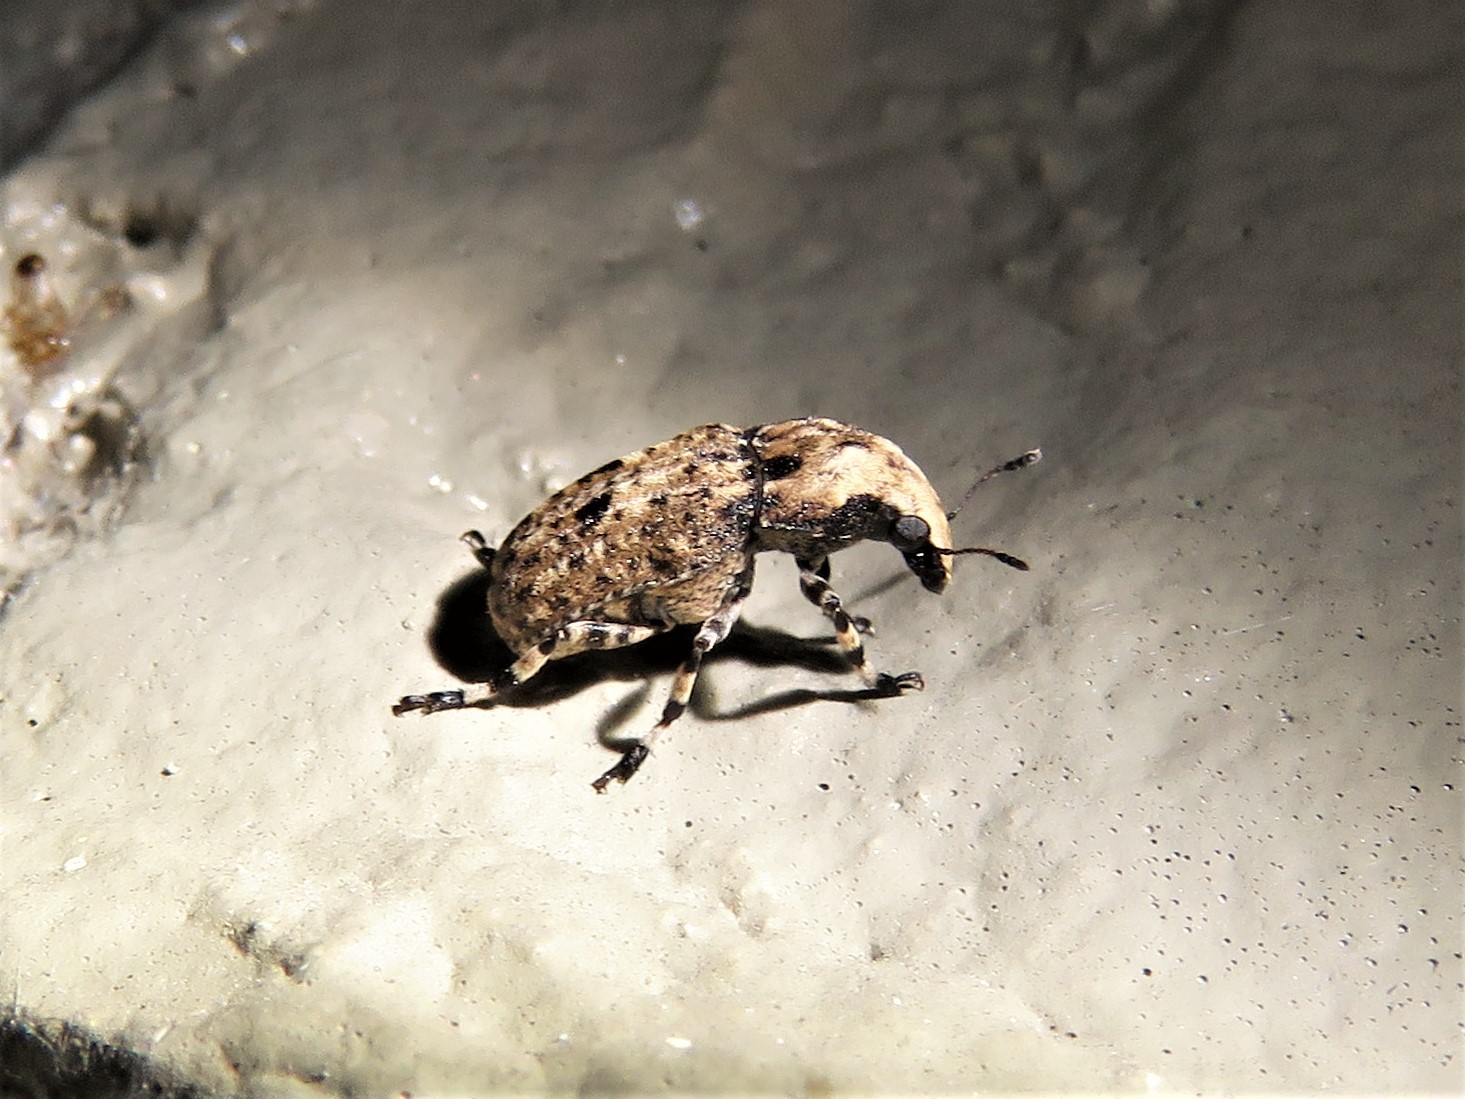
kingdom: Animalia
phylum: Arthropoda
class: Insecta
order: Coleoptera
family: Anthribidae
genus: Euparius
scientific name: Euparius marmoreus
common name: Marbled fungus weevil
